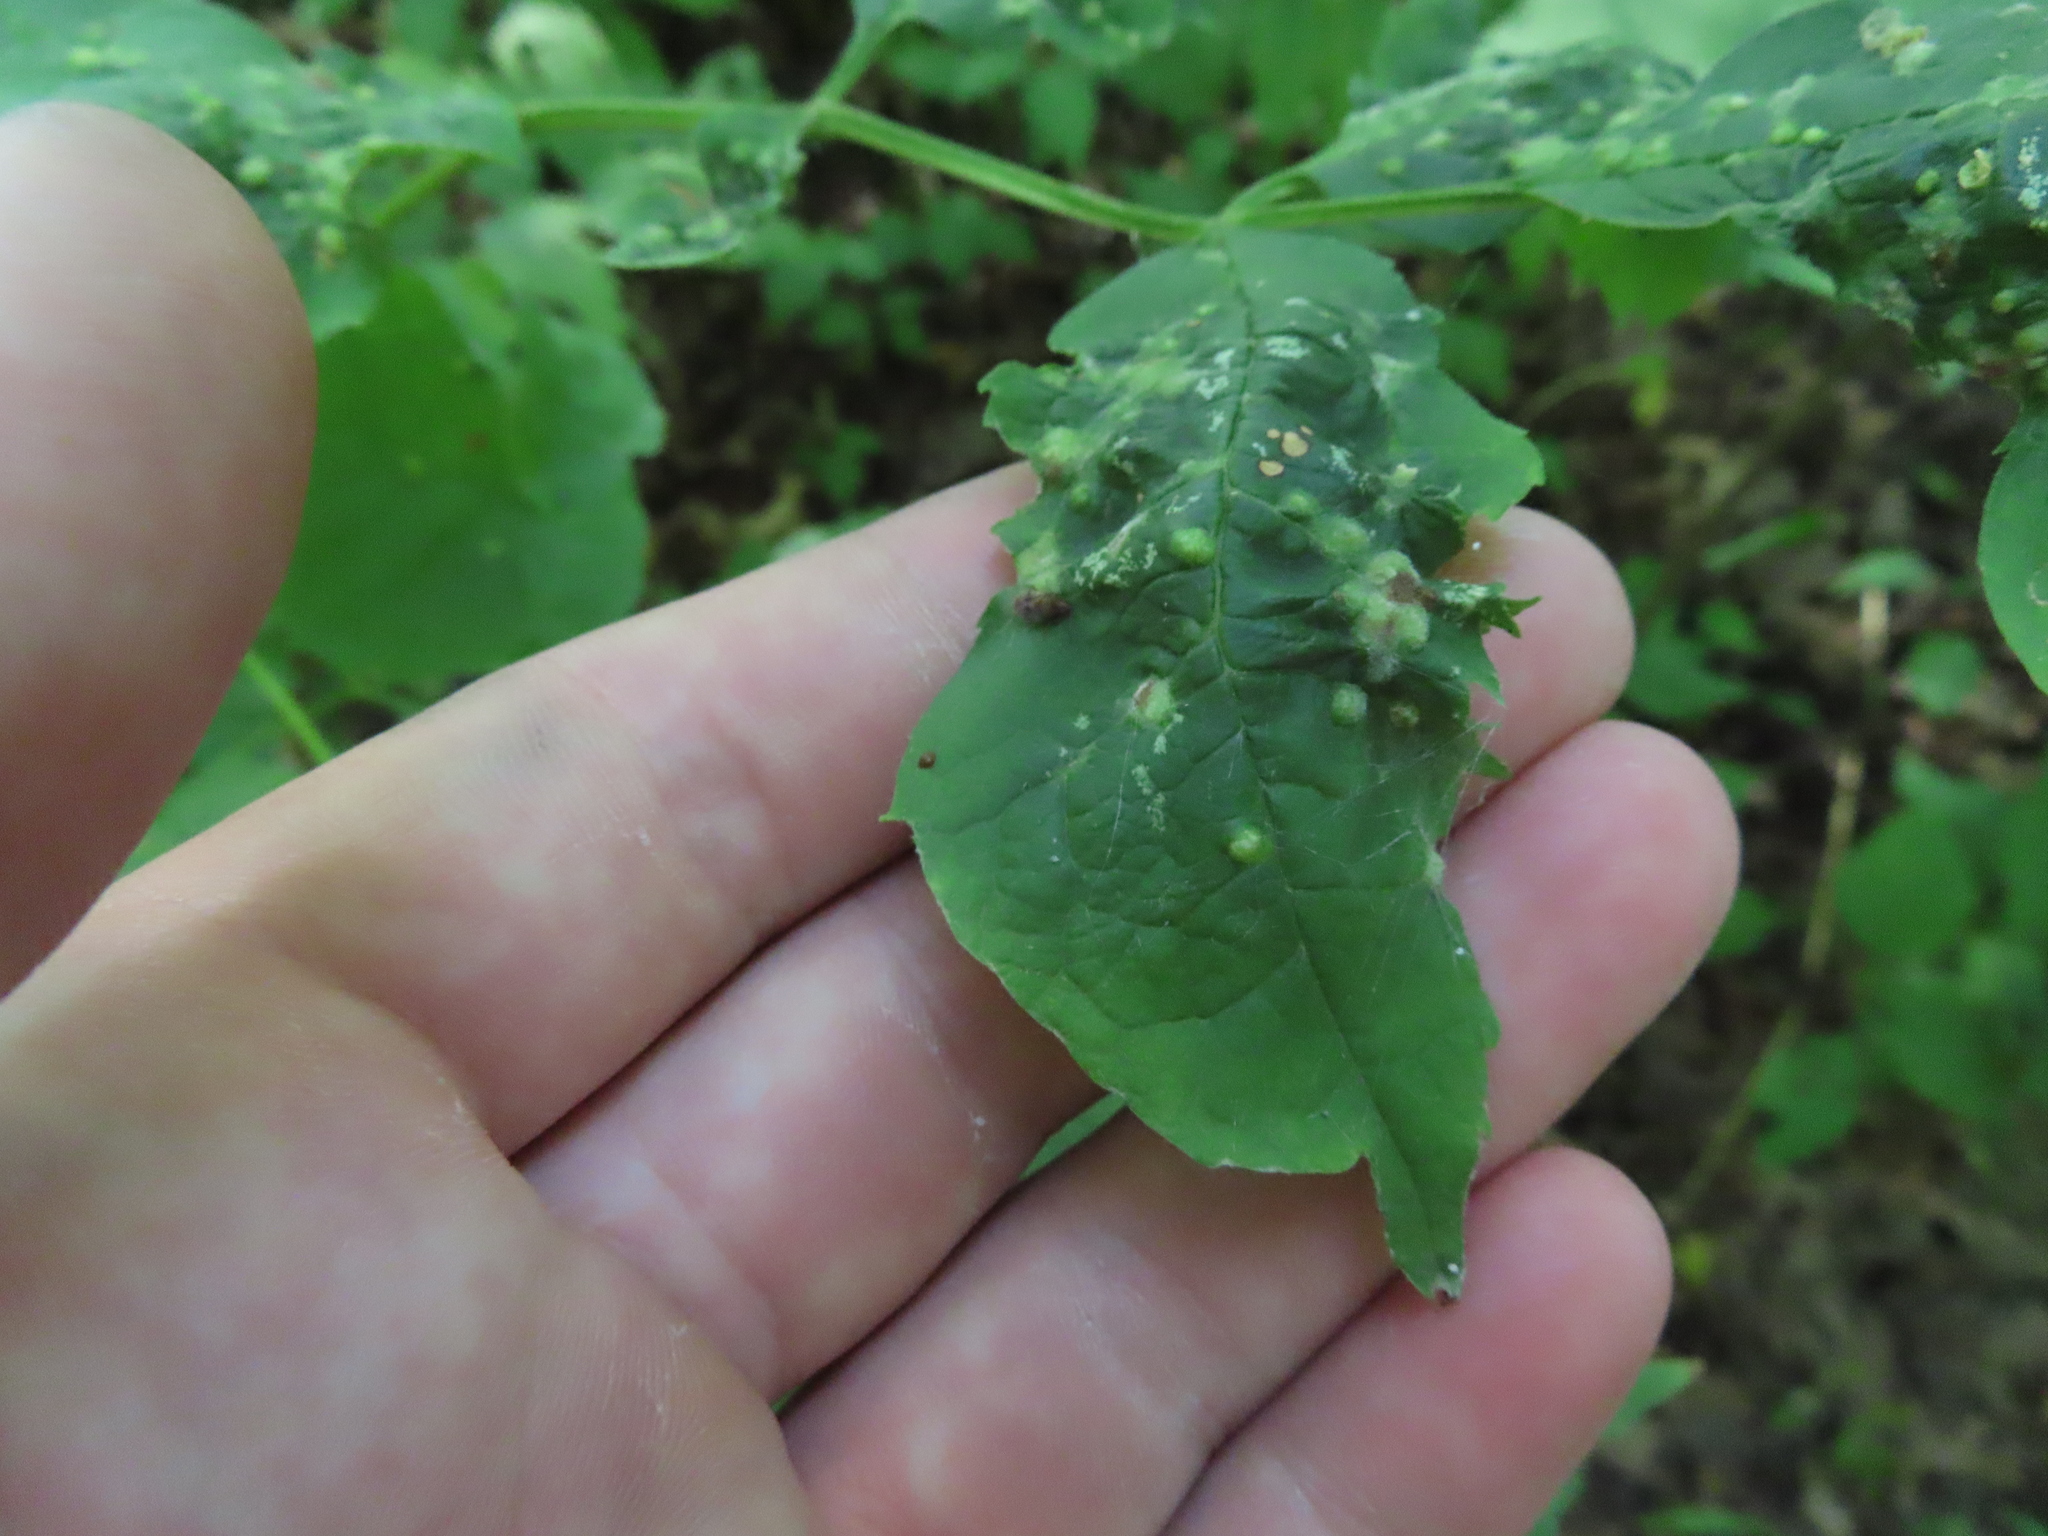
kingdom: Animalia
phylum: Arthropoda
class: Arachnida
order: Trombidiformes
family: Eriophyidae
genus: Aceria
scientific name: Aceria fraxinicola
